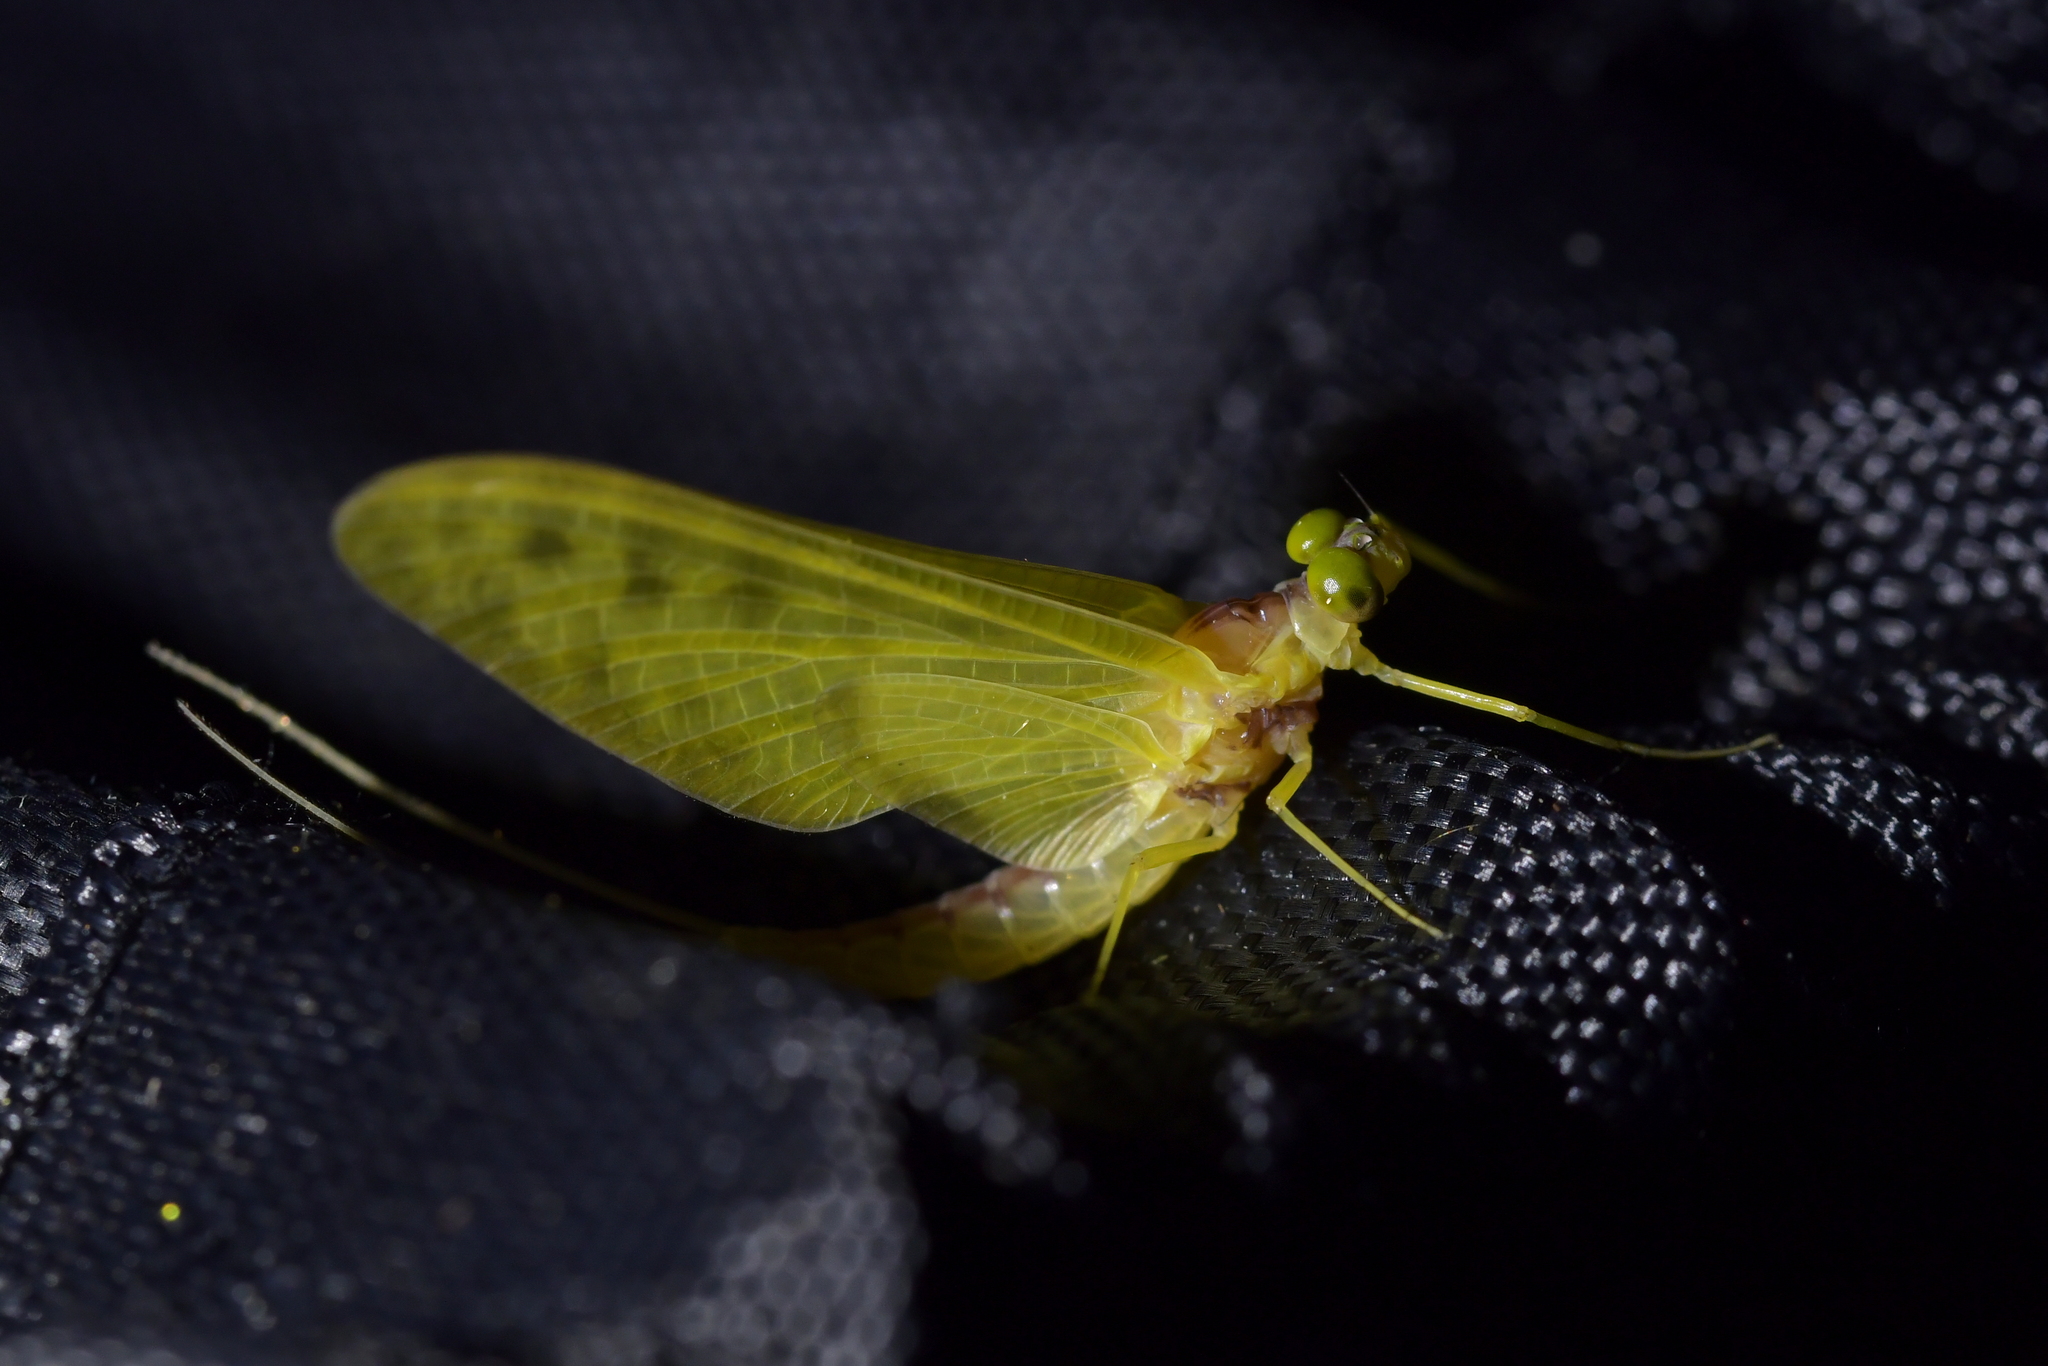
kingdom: Animalia
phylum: Arthropoda
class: Insecta
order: Ephemeroptera
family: Ameletopsidae
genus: Ameletopsis
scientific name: Ameletopsis perscitus
